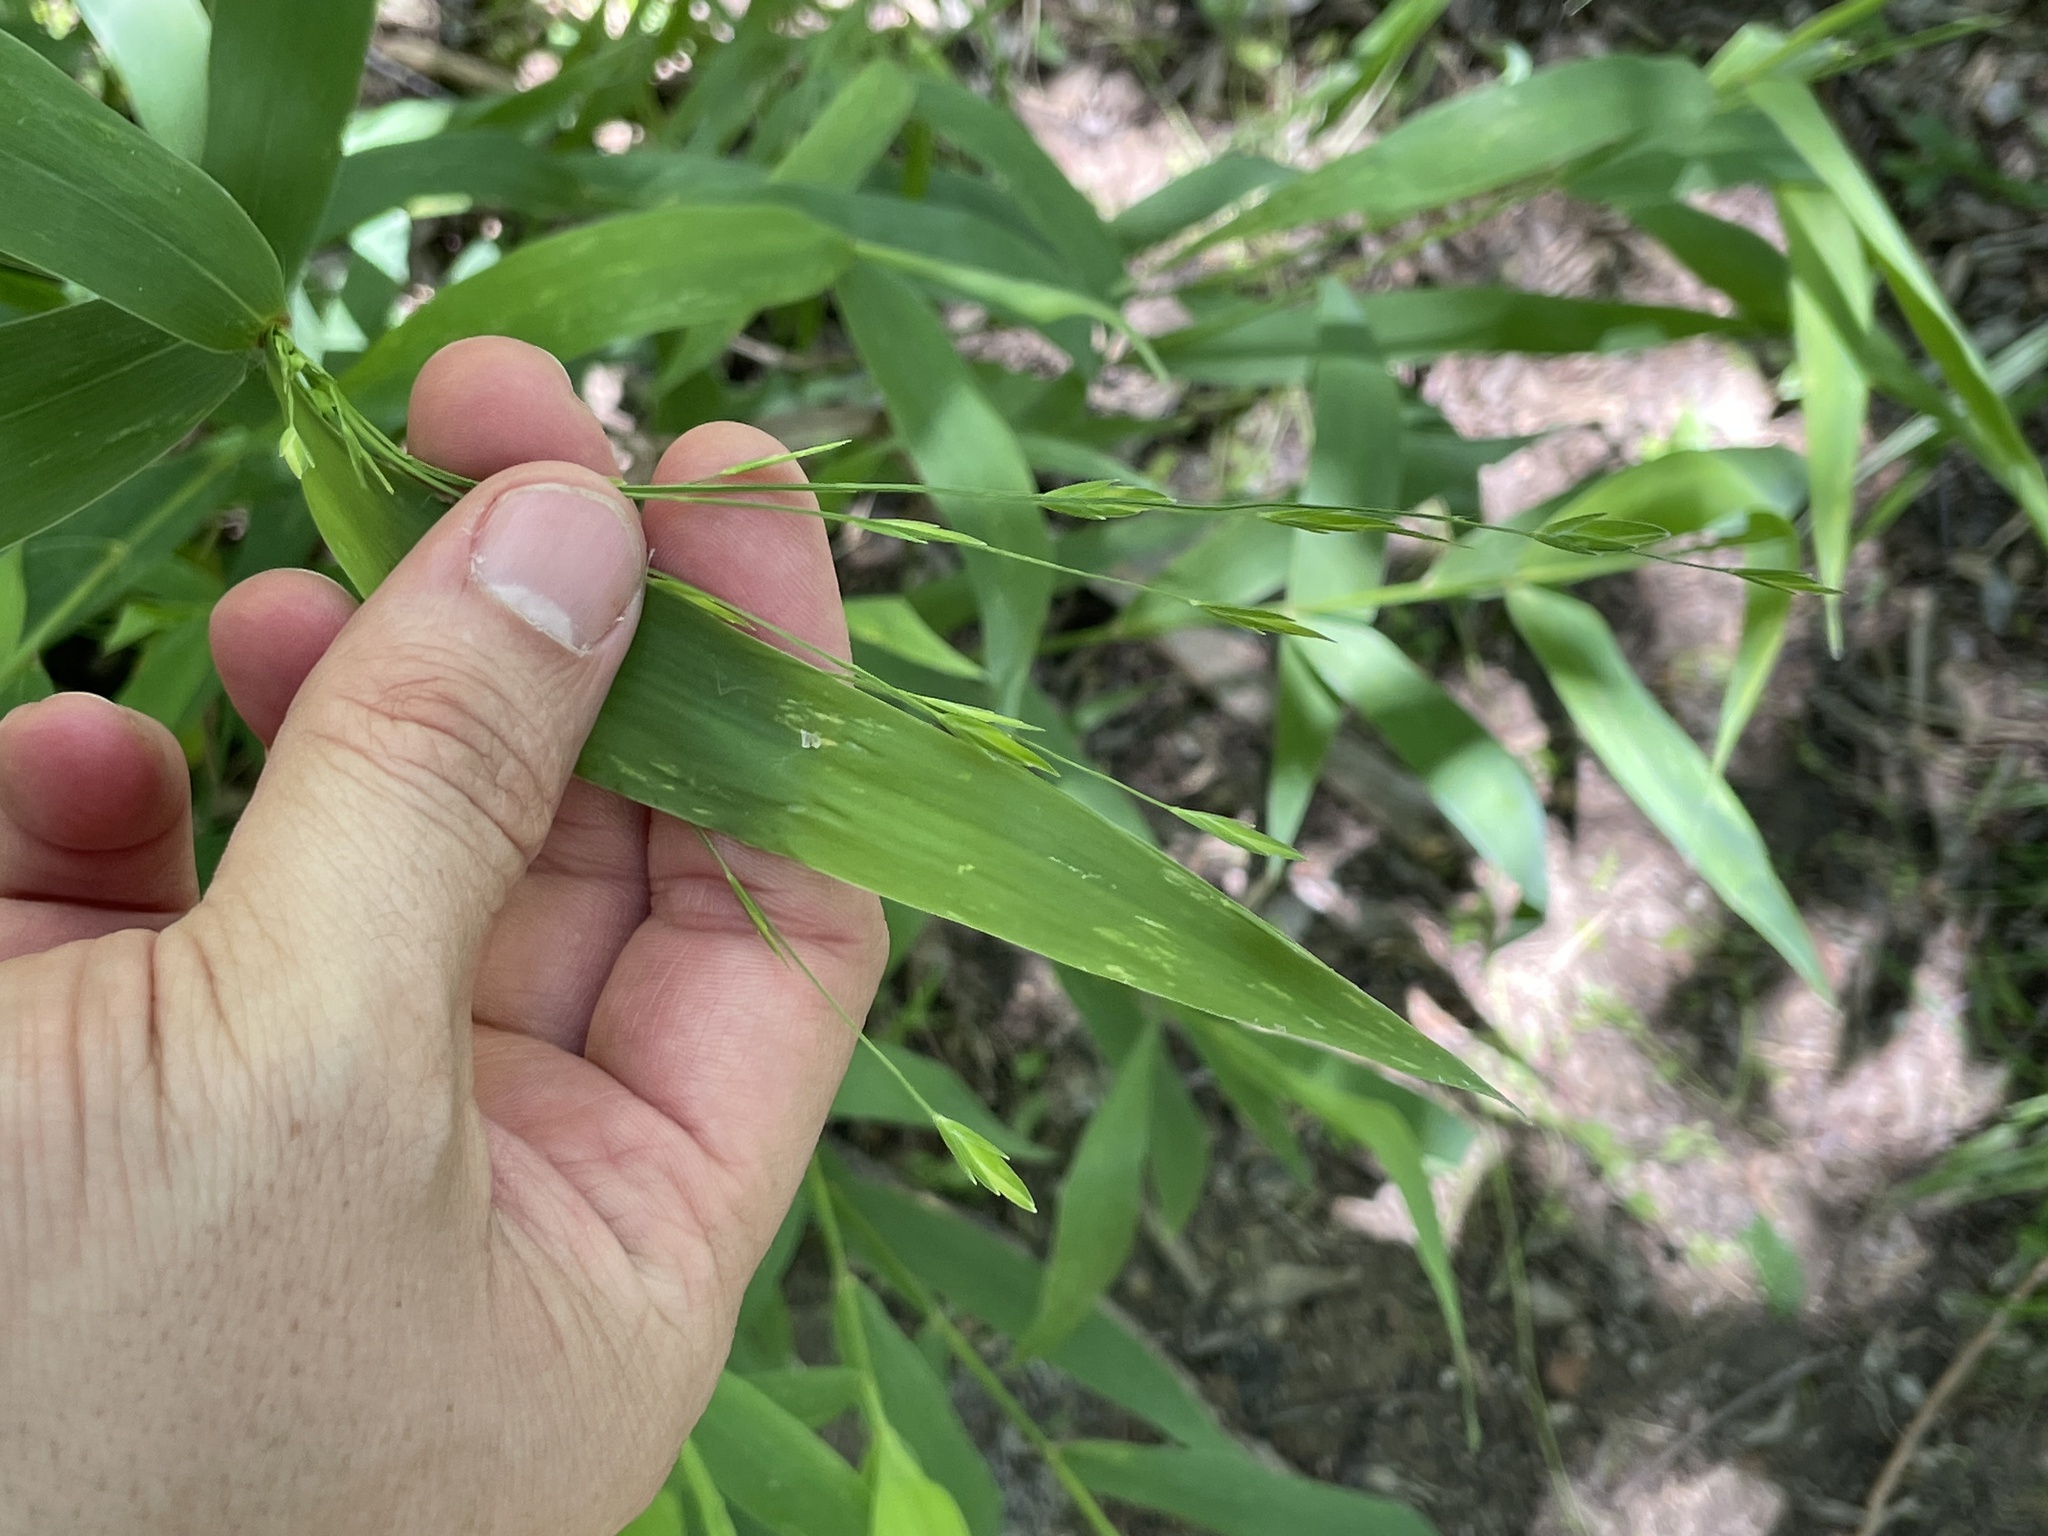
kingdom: Plantae
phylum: Tracheophyta
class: Liliopsida
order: Poales
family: Poaceae
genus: Chasmanthium
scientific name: Chasmanthium latifolium
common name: Broad-leaved chasmanthium
